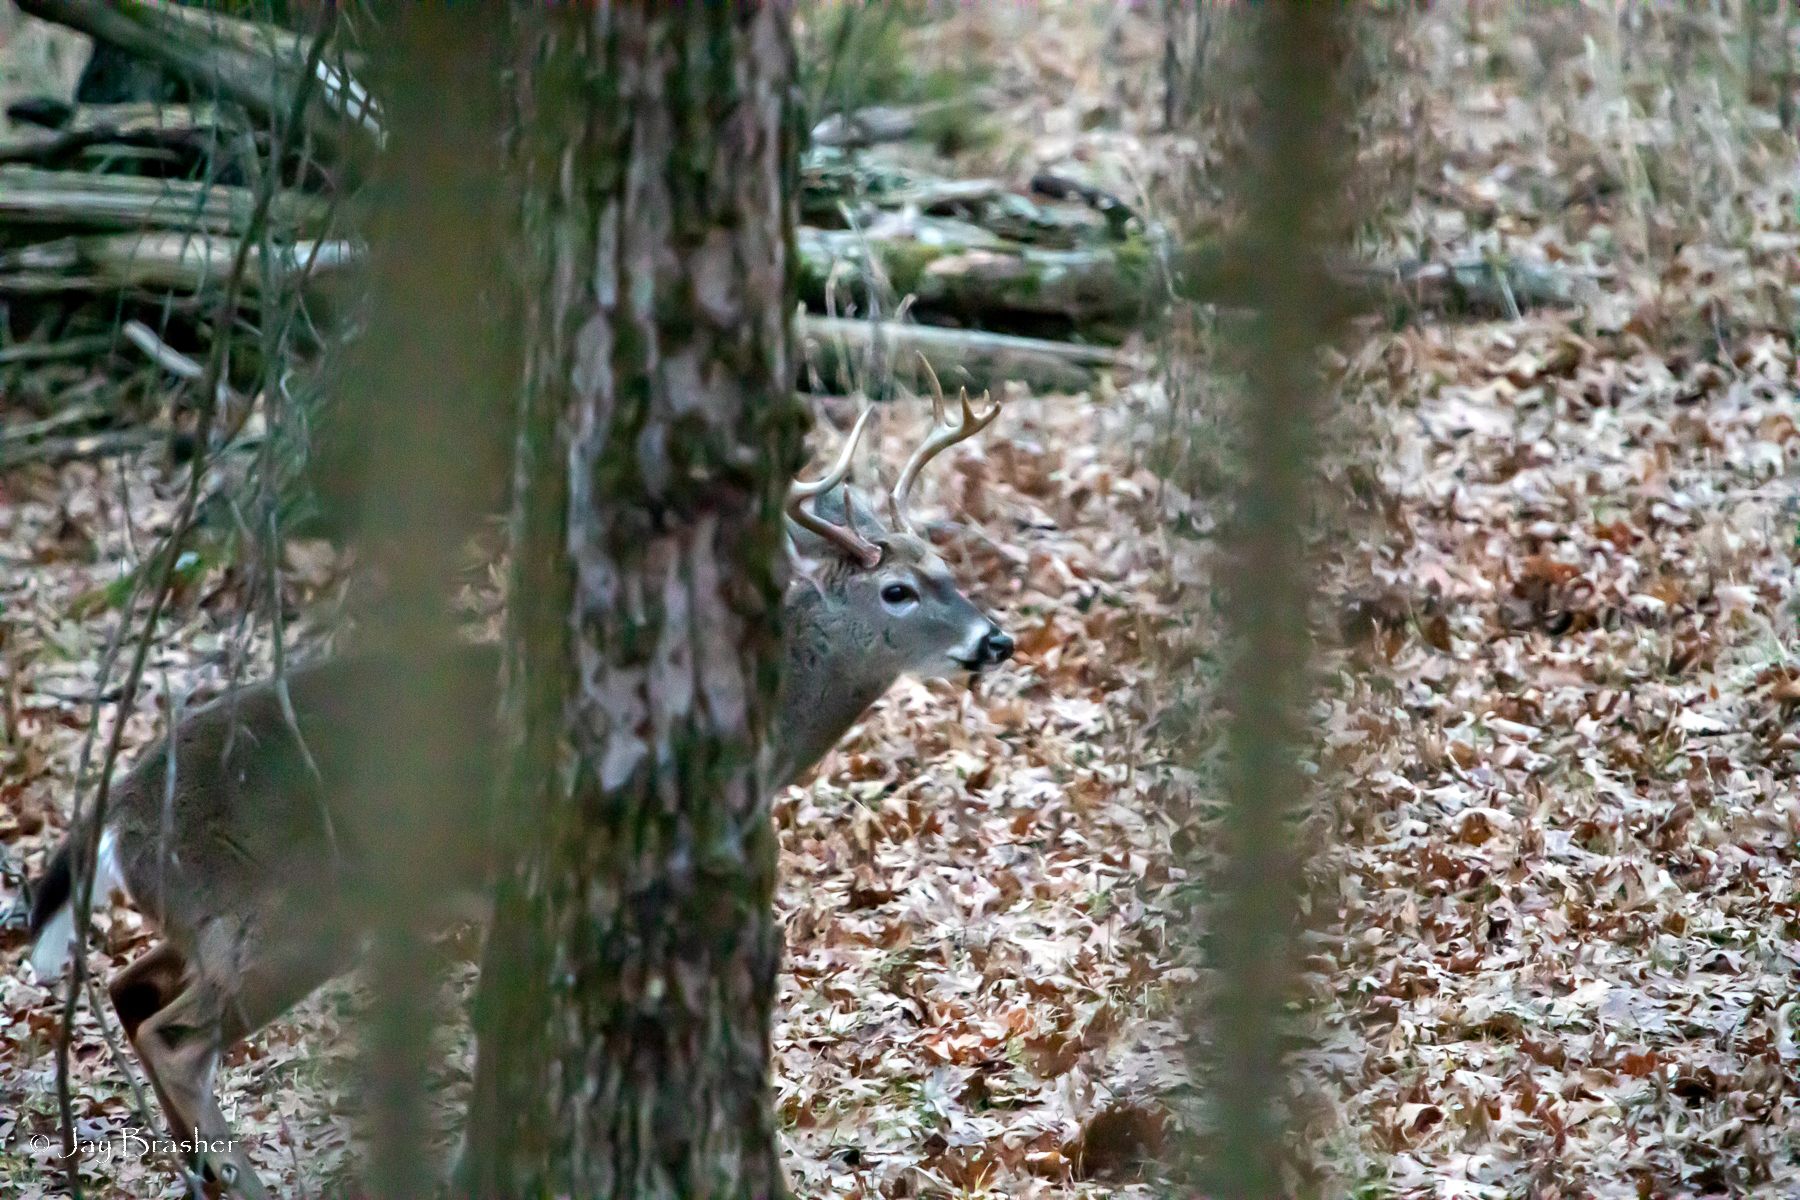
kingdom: Animalia
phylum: Chordata
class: Mammalia
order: Artiodactyla
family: Cervidae
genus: Odocoileus
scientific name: Odocoileus virginianus
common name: White-tailed deer
